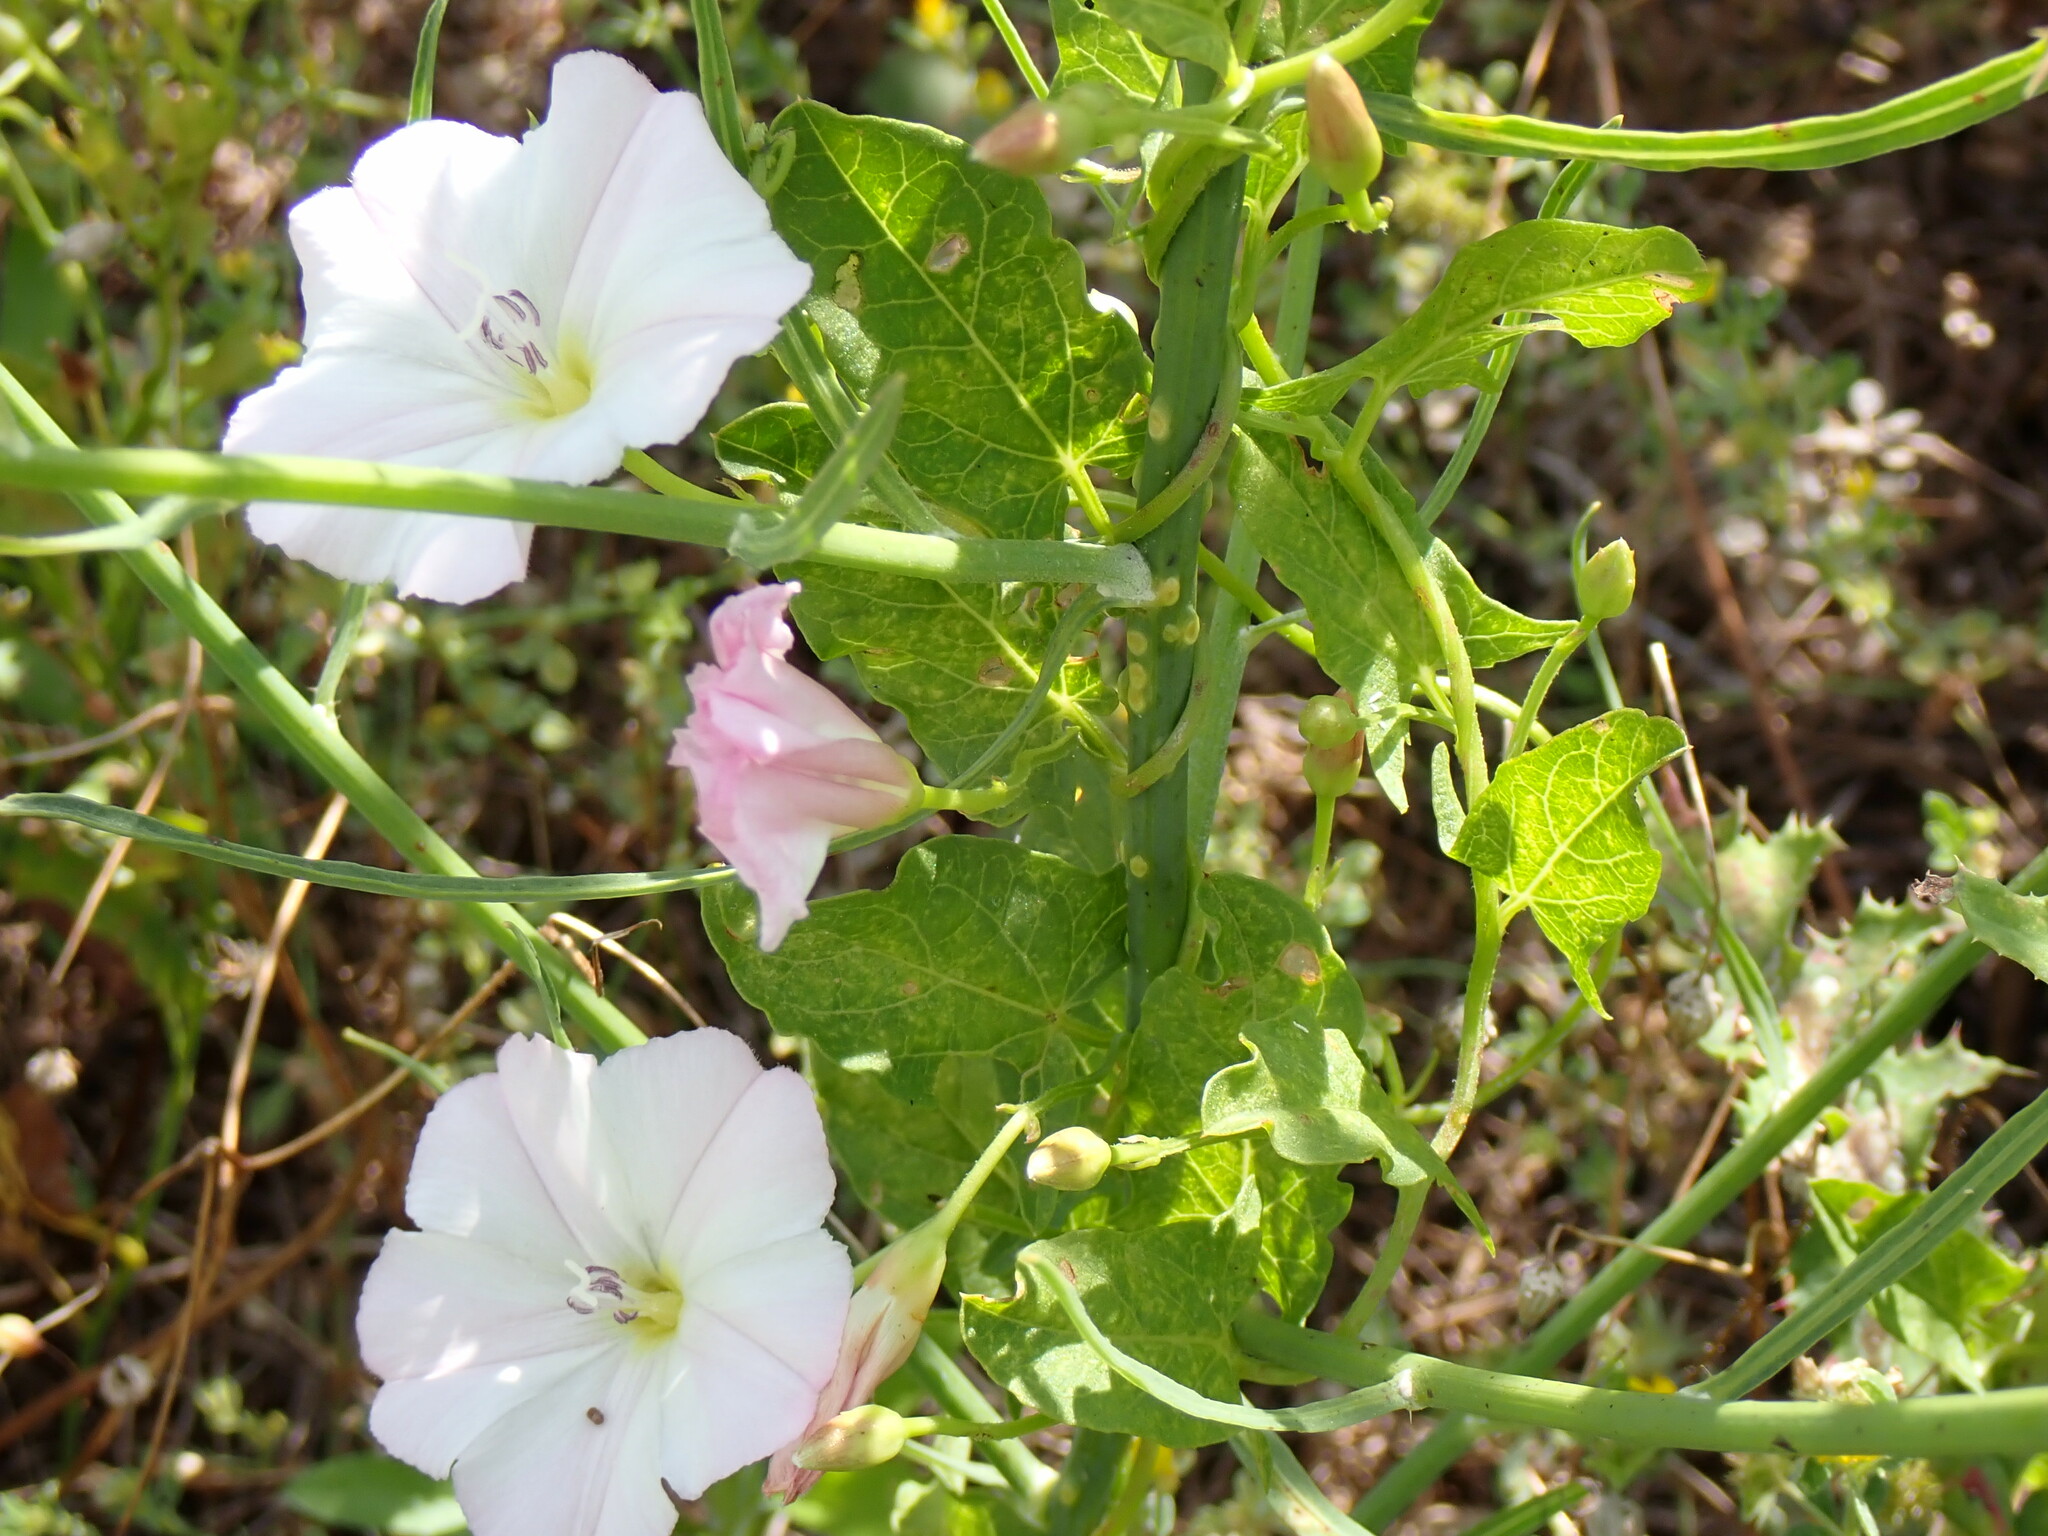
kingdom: Plantae
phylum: Tracheophyta
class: Magnoliopsida
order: Solanales
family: Convolvulaceae
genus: Convolvulus
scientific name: Convolvulus arvensis
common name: Field bindweed
